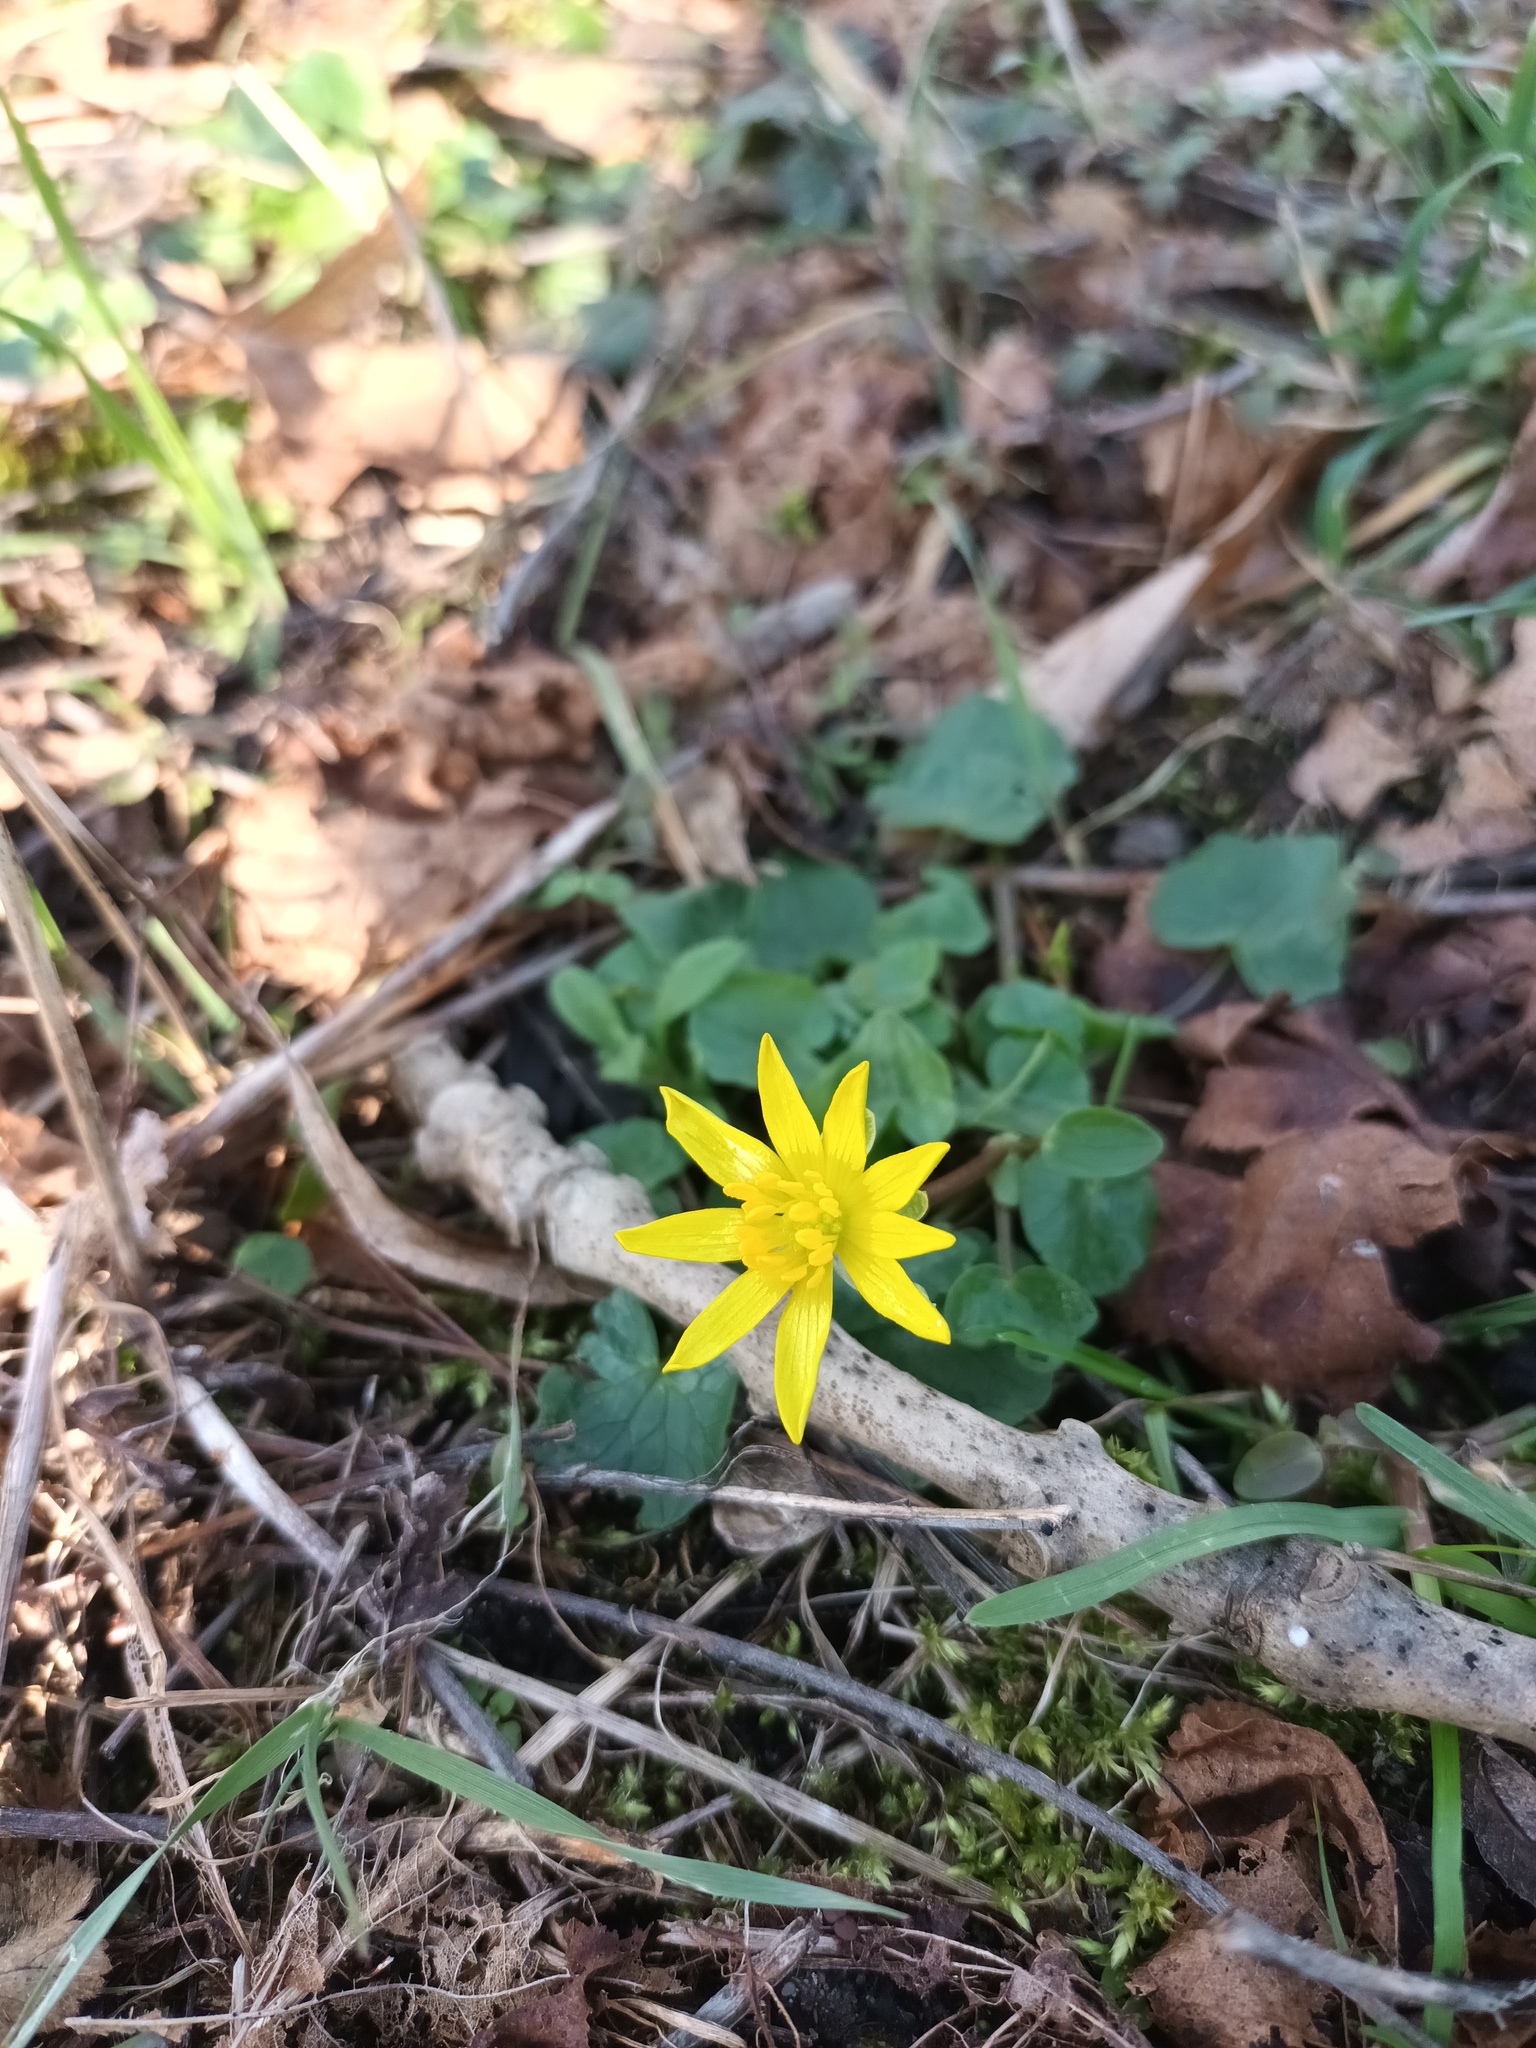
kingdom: Plantae
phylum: Tracheophyta
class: Magnoliopsida
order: Ranunculales
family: Ranunculaceae
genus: Ficaria
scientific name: Ficaria verna
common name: Lesser celandine
